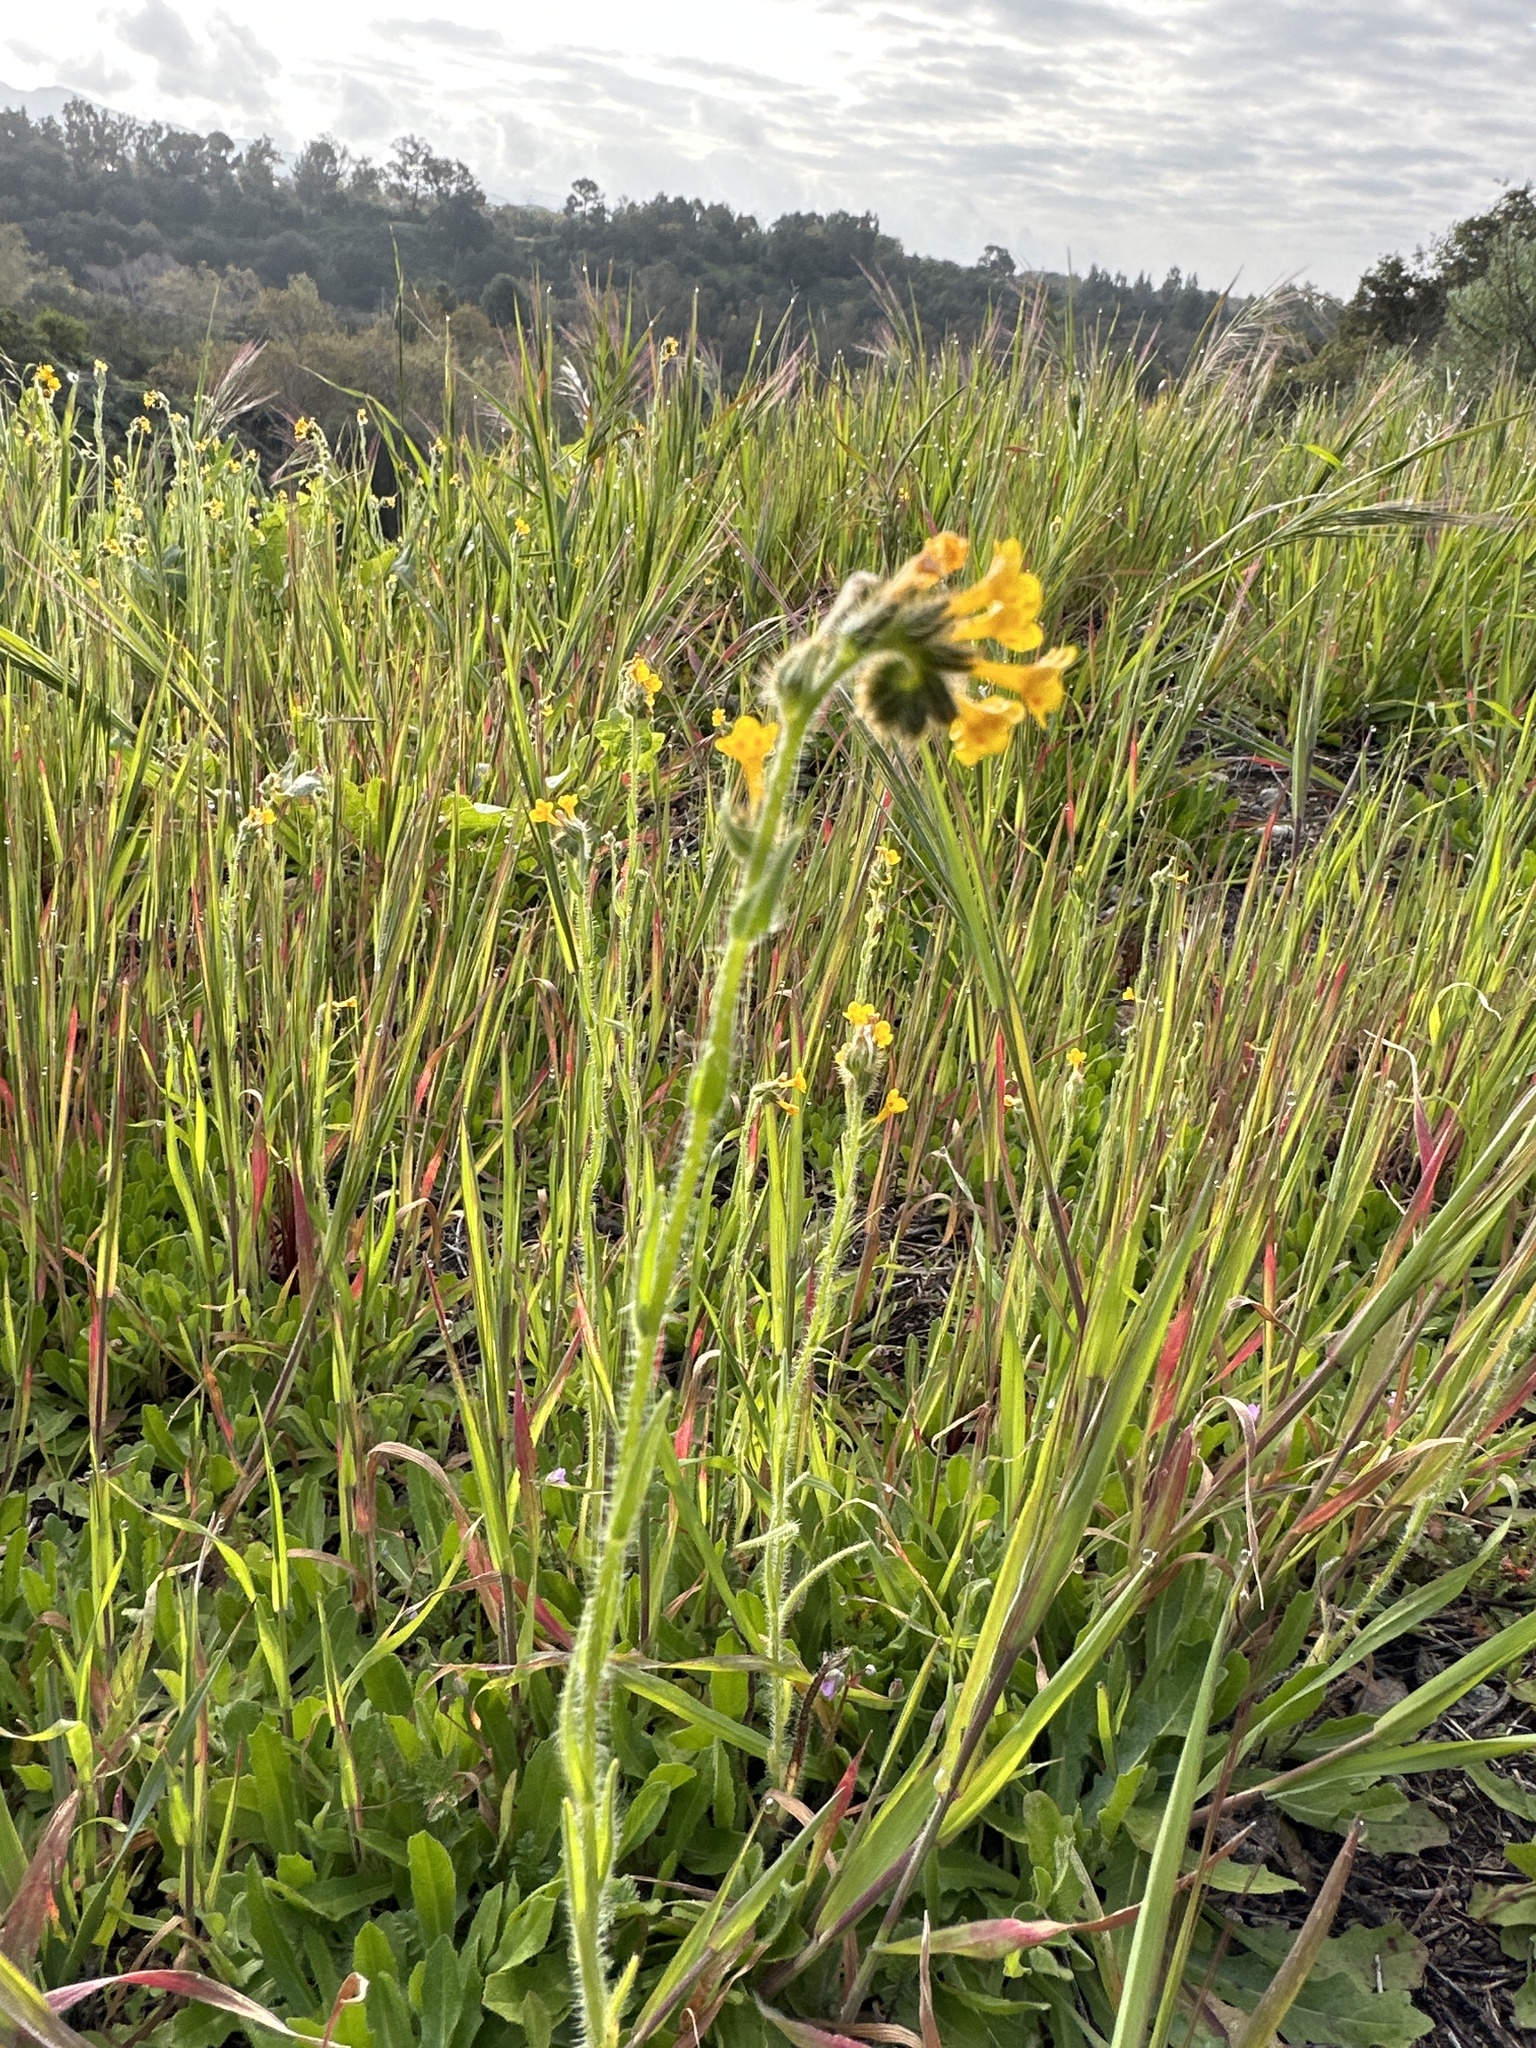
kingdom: Plantae
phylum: Tracheophyta
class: Magnoliopsida
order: Boraginales
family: Boraginaceae
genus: Amsinckia
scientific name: Amsinckia menziesii
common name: Menzies' fiddleneck
